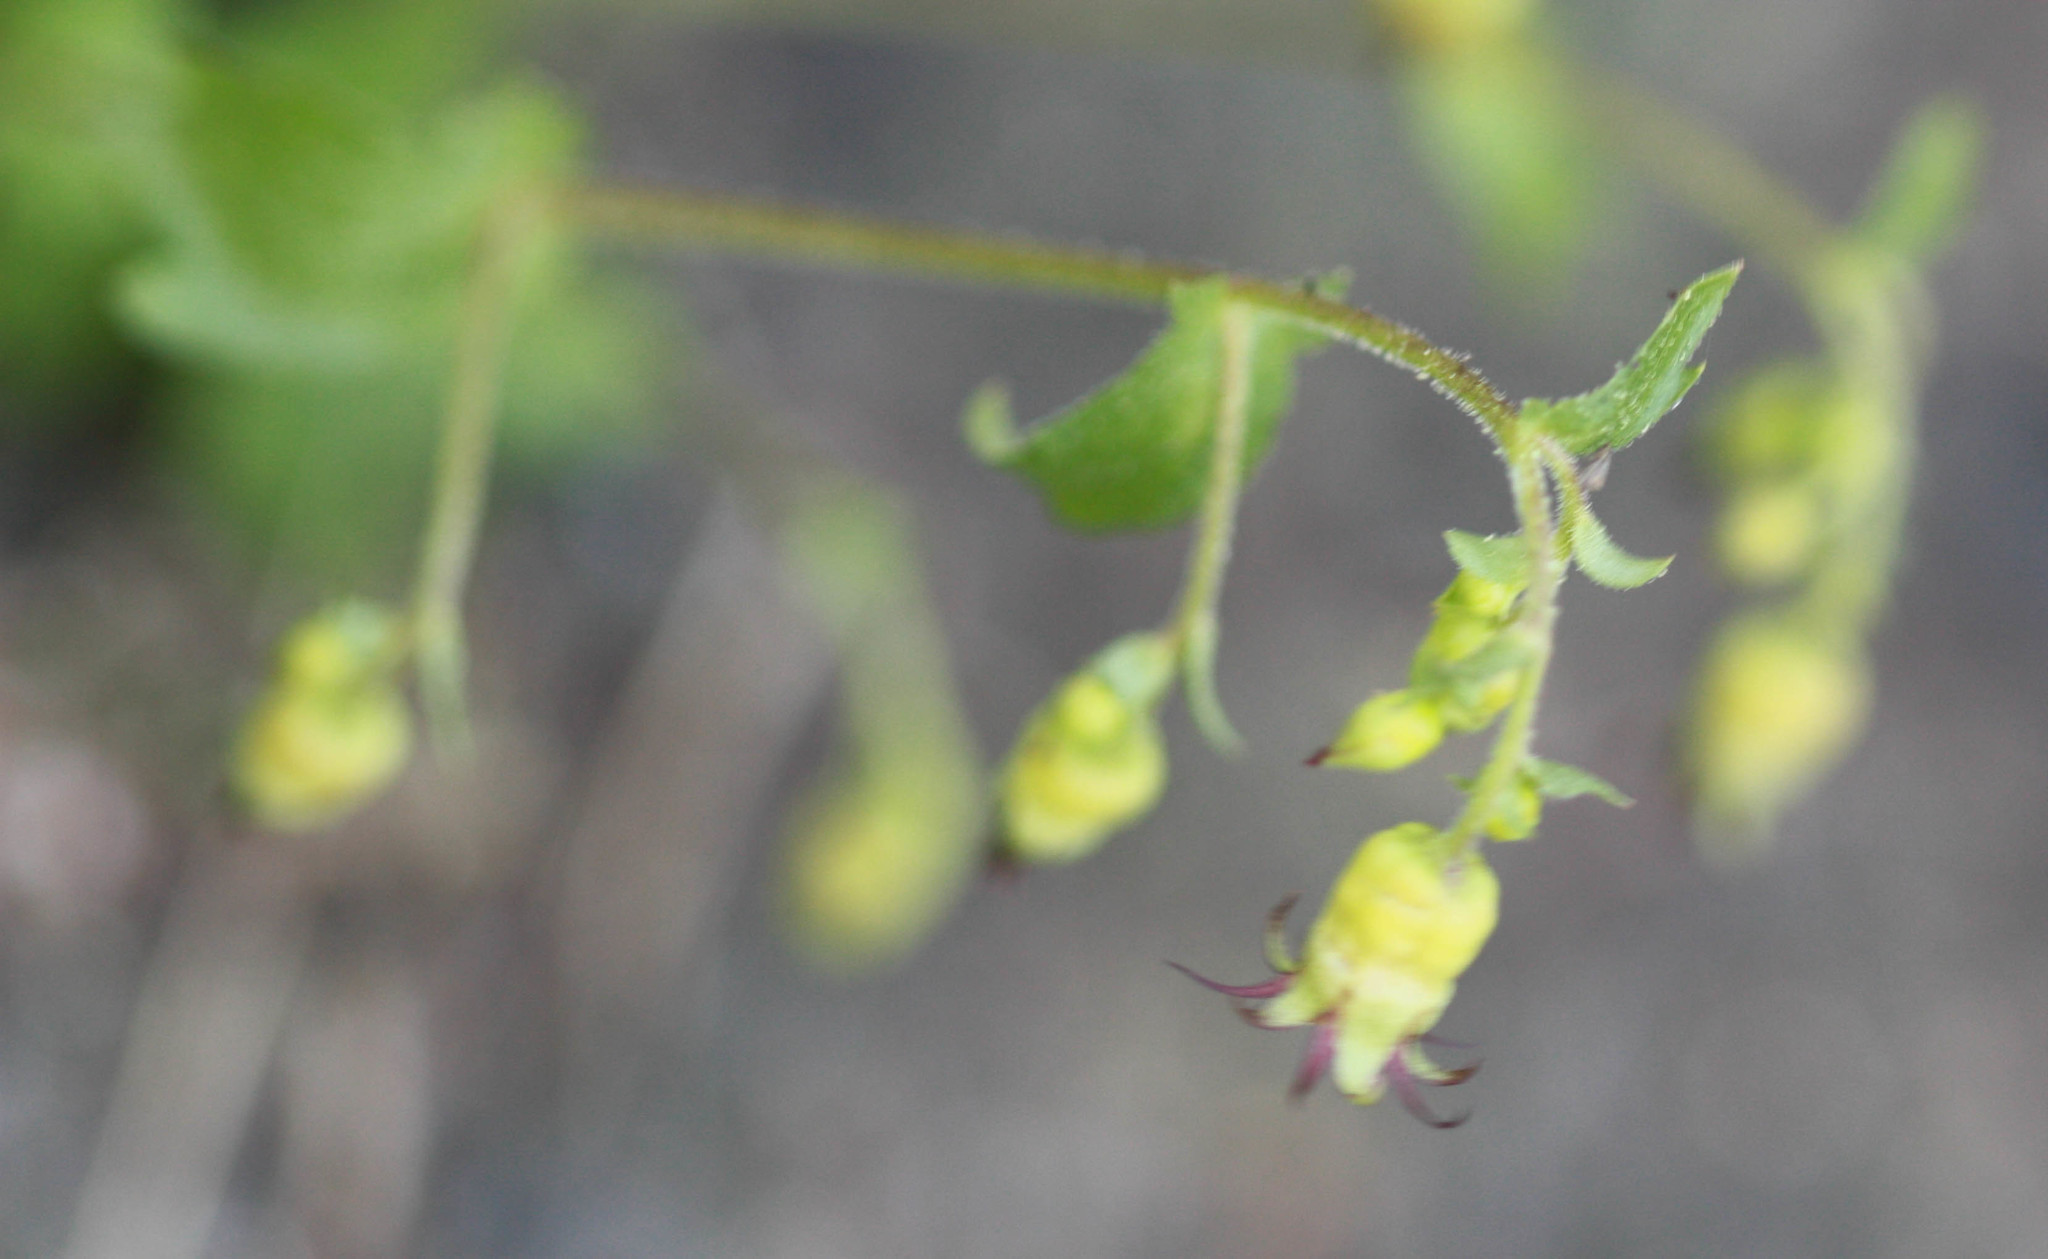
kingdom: Plantae
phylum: Tracheophyta
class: Magnoliopsida
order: Saxifragales
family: Saxifragaceae
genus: Bolandra
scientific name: Bolandra californica
